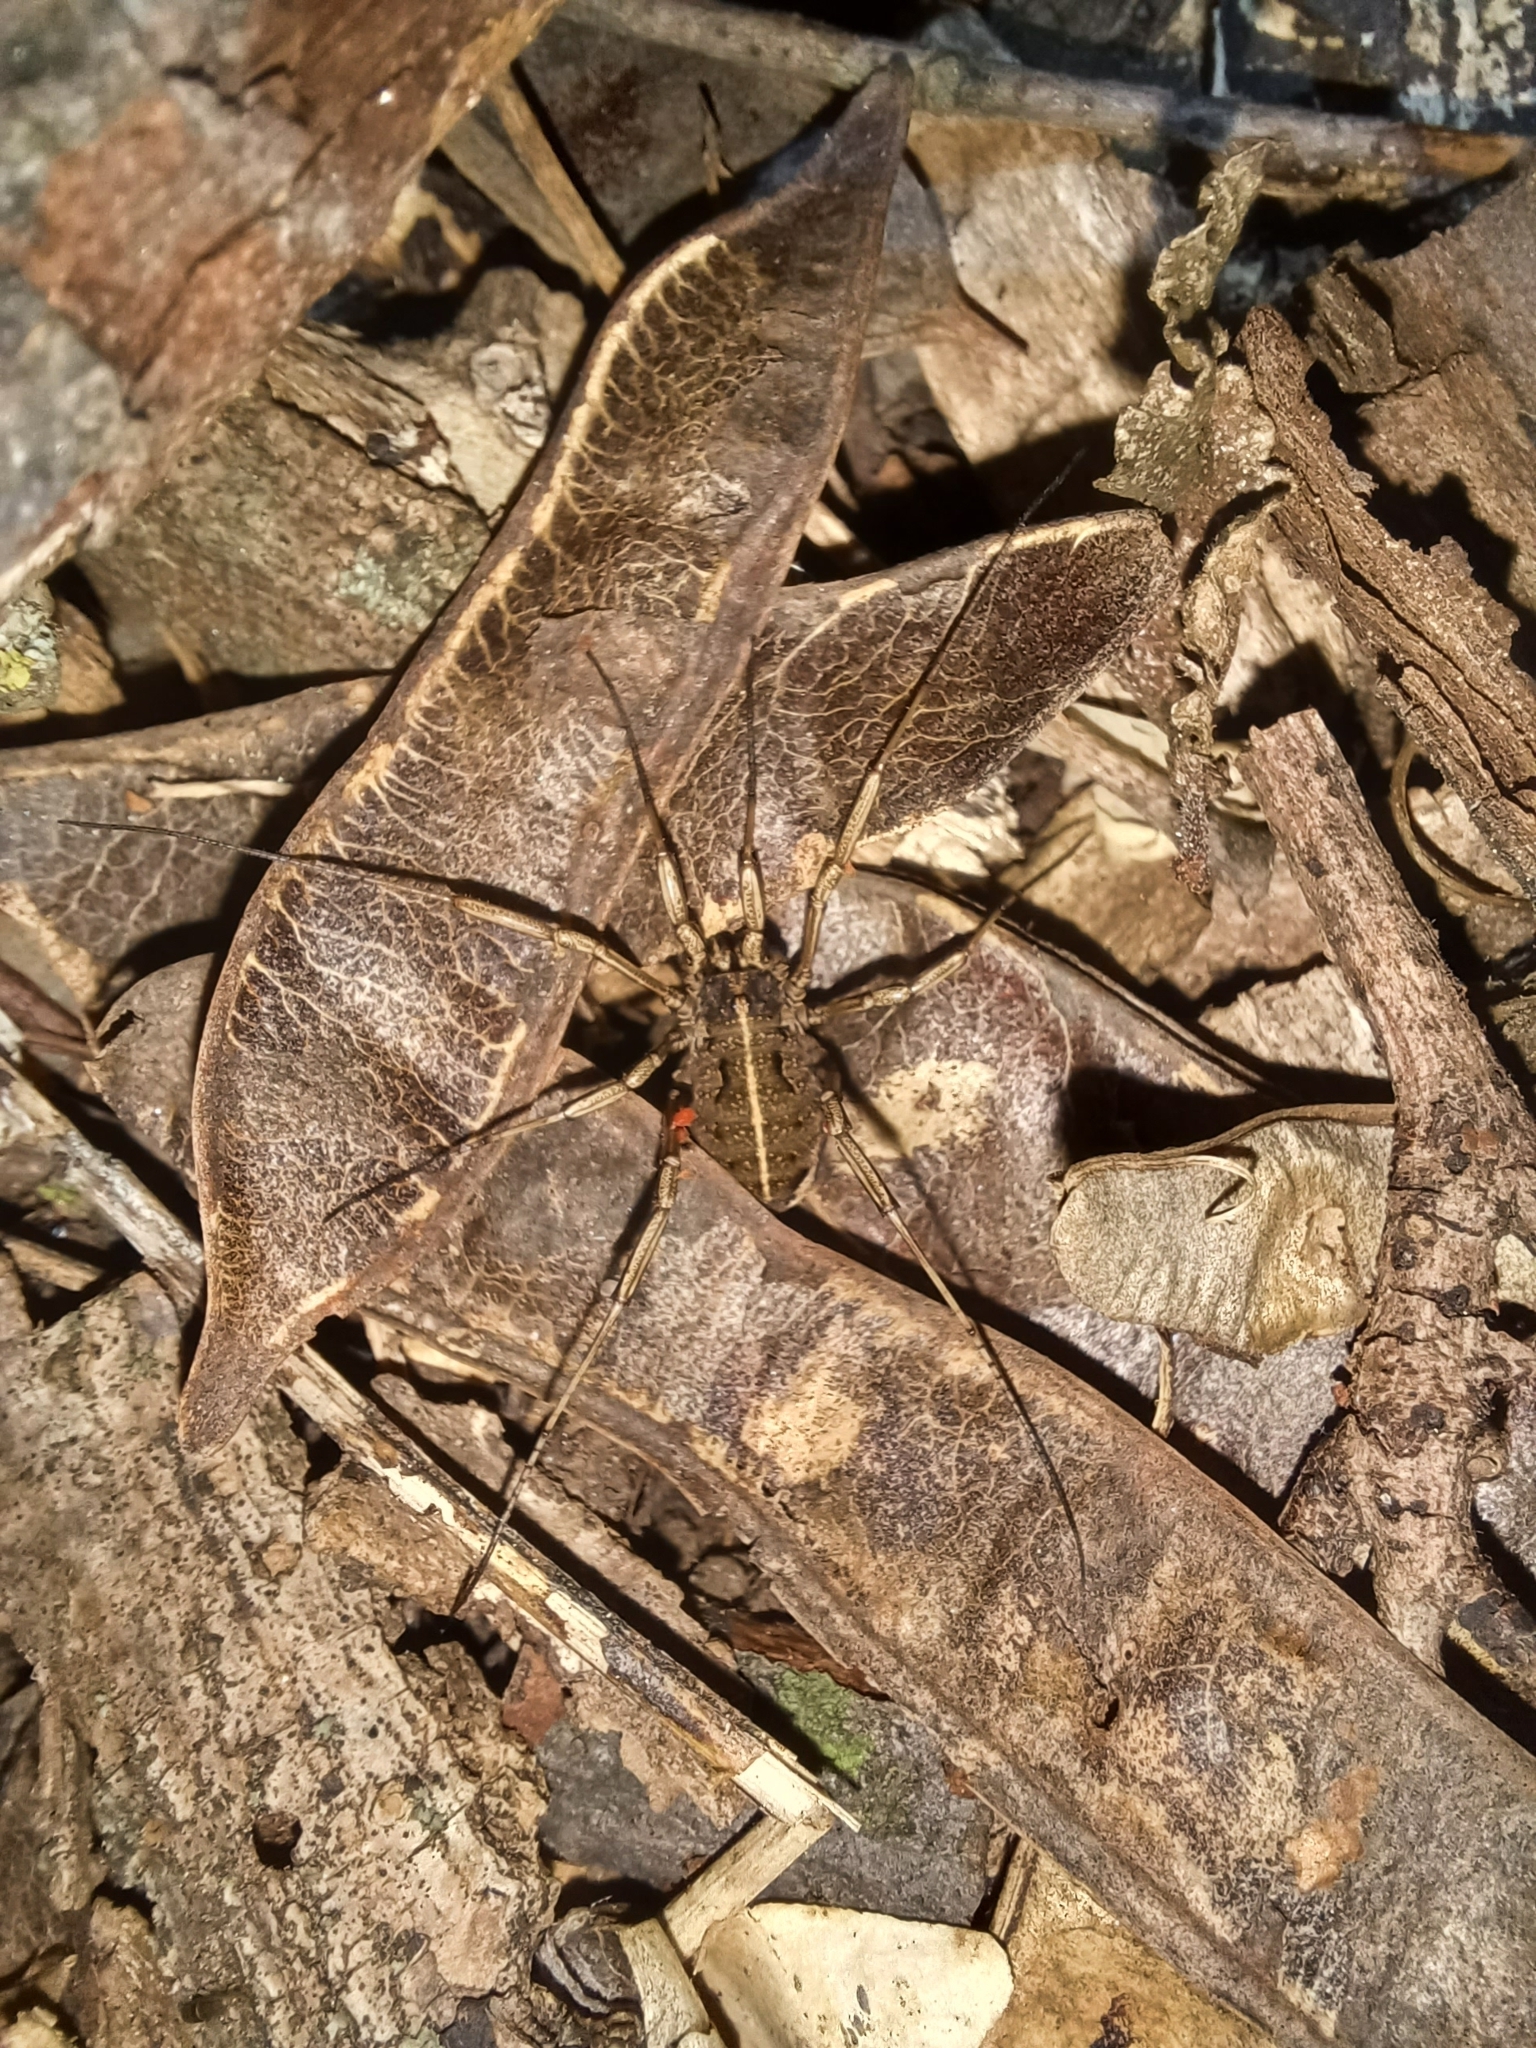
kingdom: Animalia
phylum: Arthropoda
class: Arachnida
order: Opiliones
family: Phalangiidae
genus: Zachaeus
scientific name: Zachaeus crista
